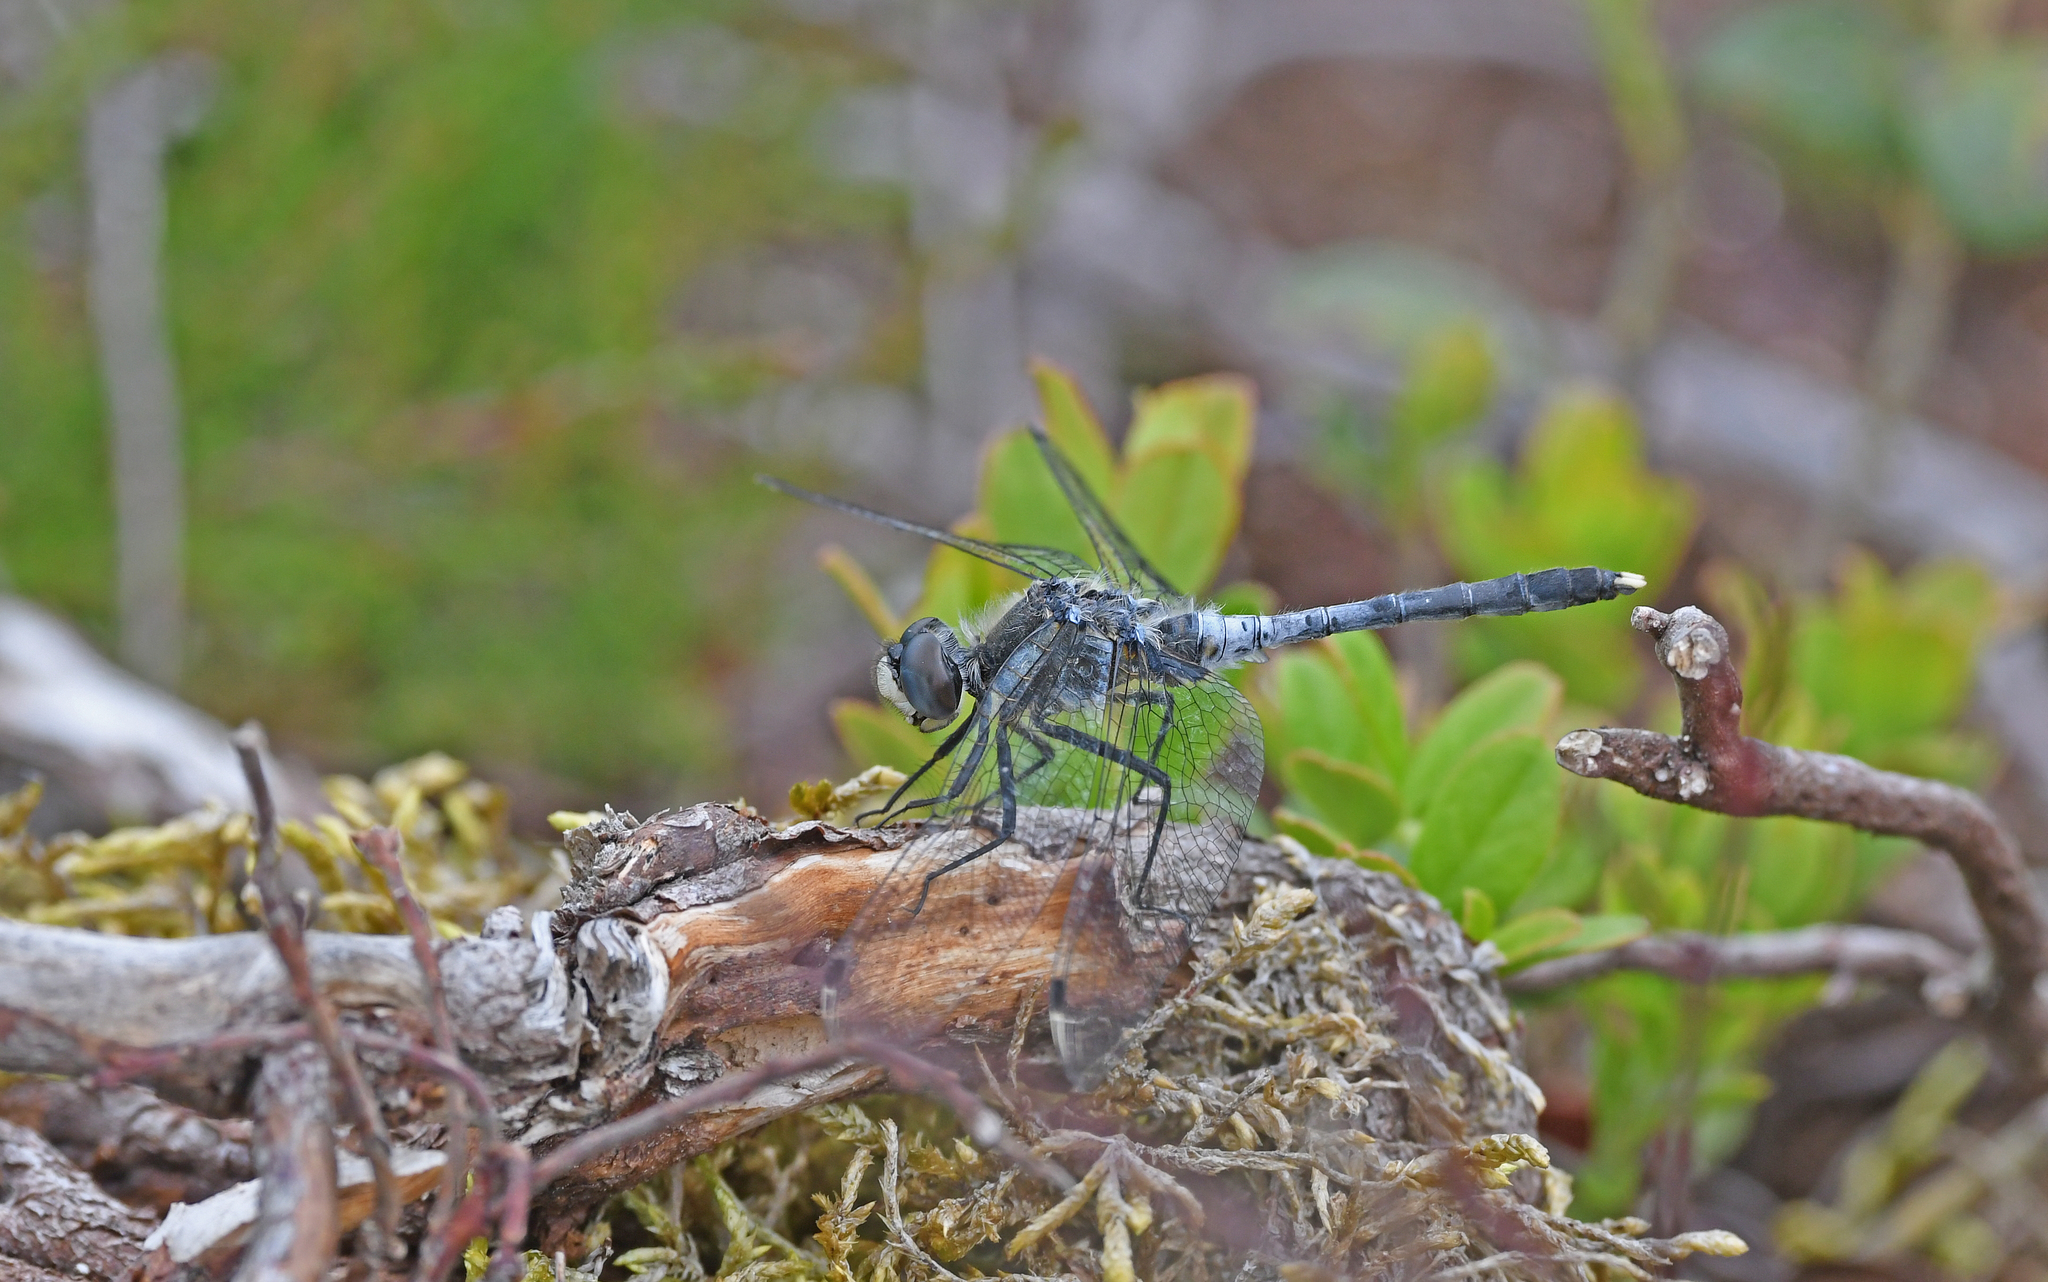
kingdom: Animalia
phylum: Arthropoda
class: Insecta
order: Odonata
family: Libellulidae
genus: Leucorrhinia
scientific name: Leucorrhinia albifrons
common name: Dark whiteface
